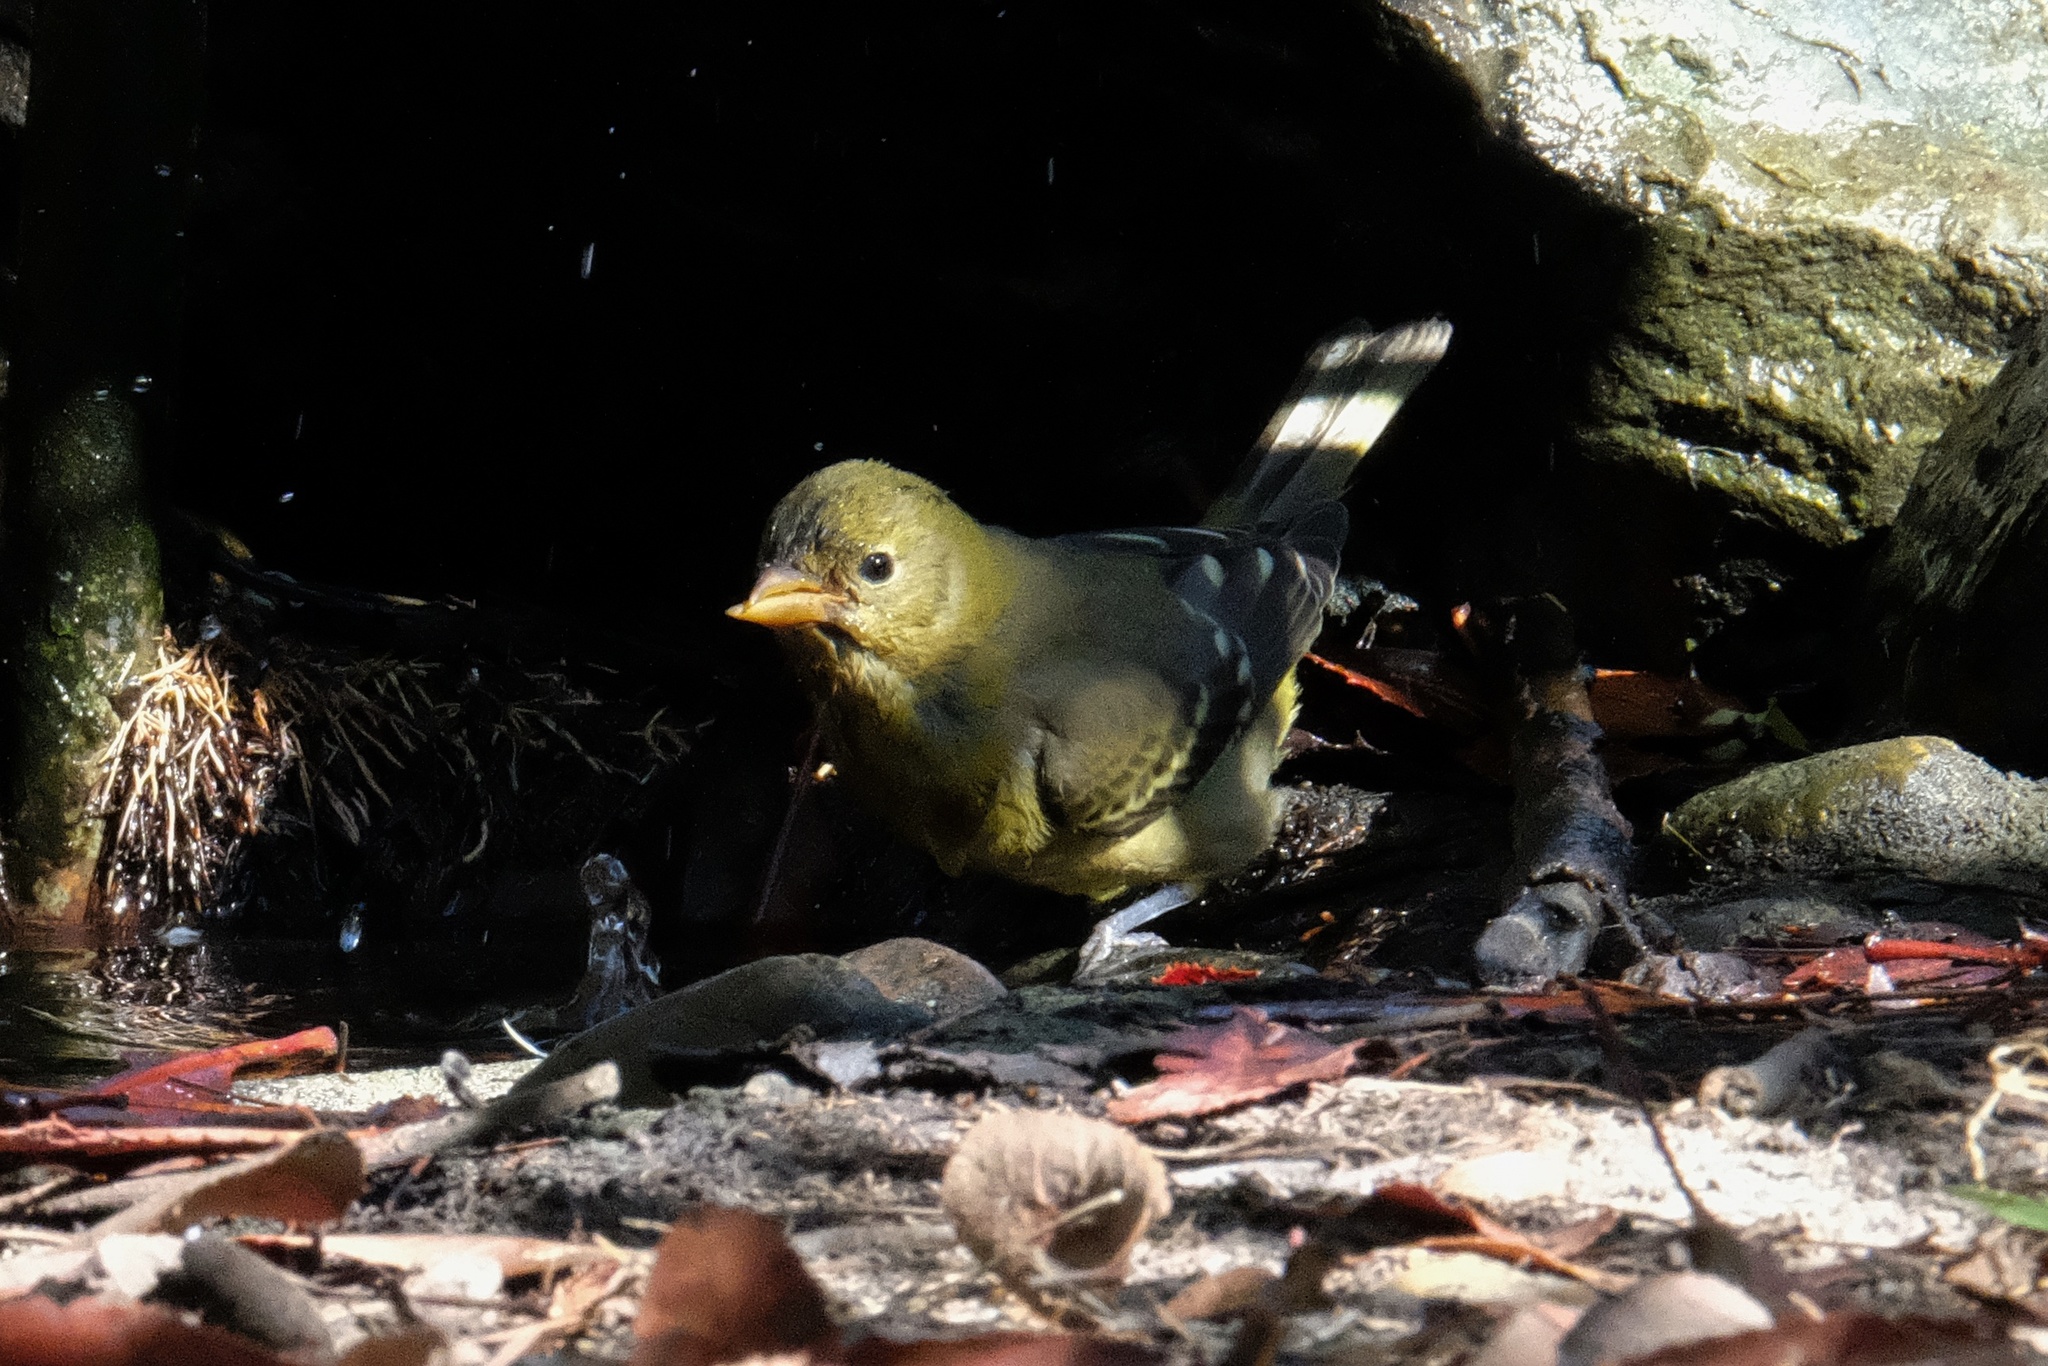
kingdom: Animalia
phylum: Chordata
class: Aves
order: Passeriformes
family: Cardinalidae
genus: Piranga
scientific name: Piranga ludoviciana
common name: Western tanager
